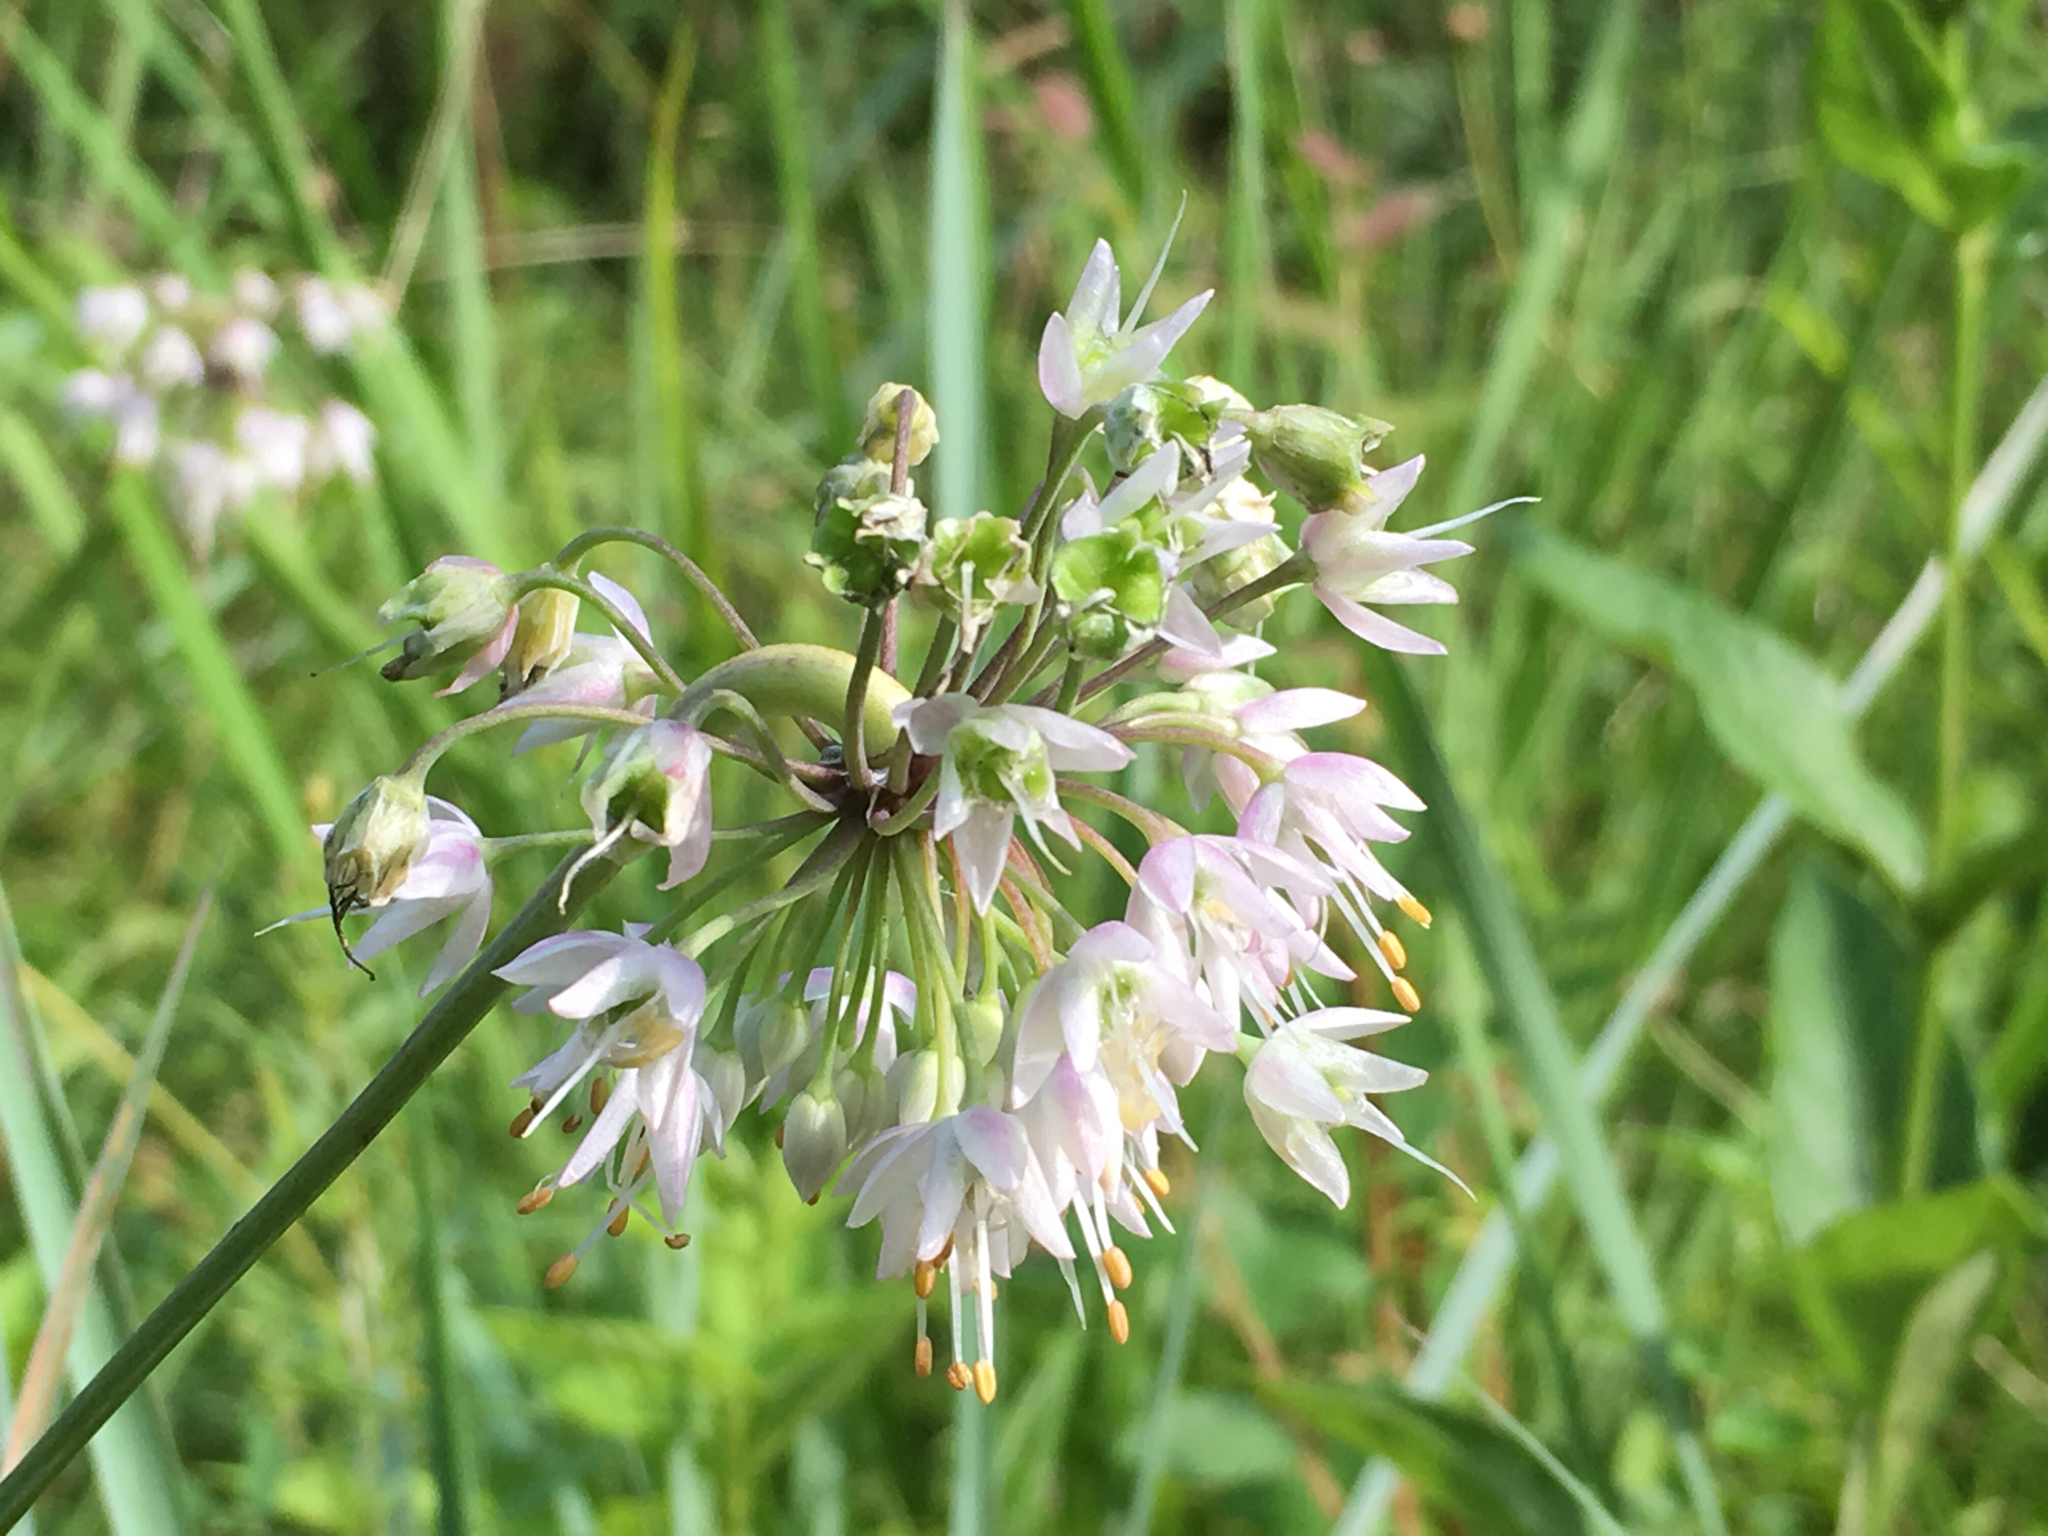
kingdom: Plantae
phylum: Tracheophyta
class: Liliopsida
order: Asparagales
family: Amaryllidaceae
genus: Allium
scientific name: Allium cernuum
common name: Nodding onion
